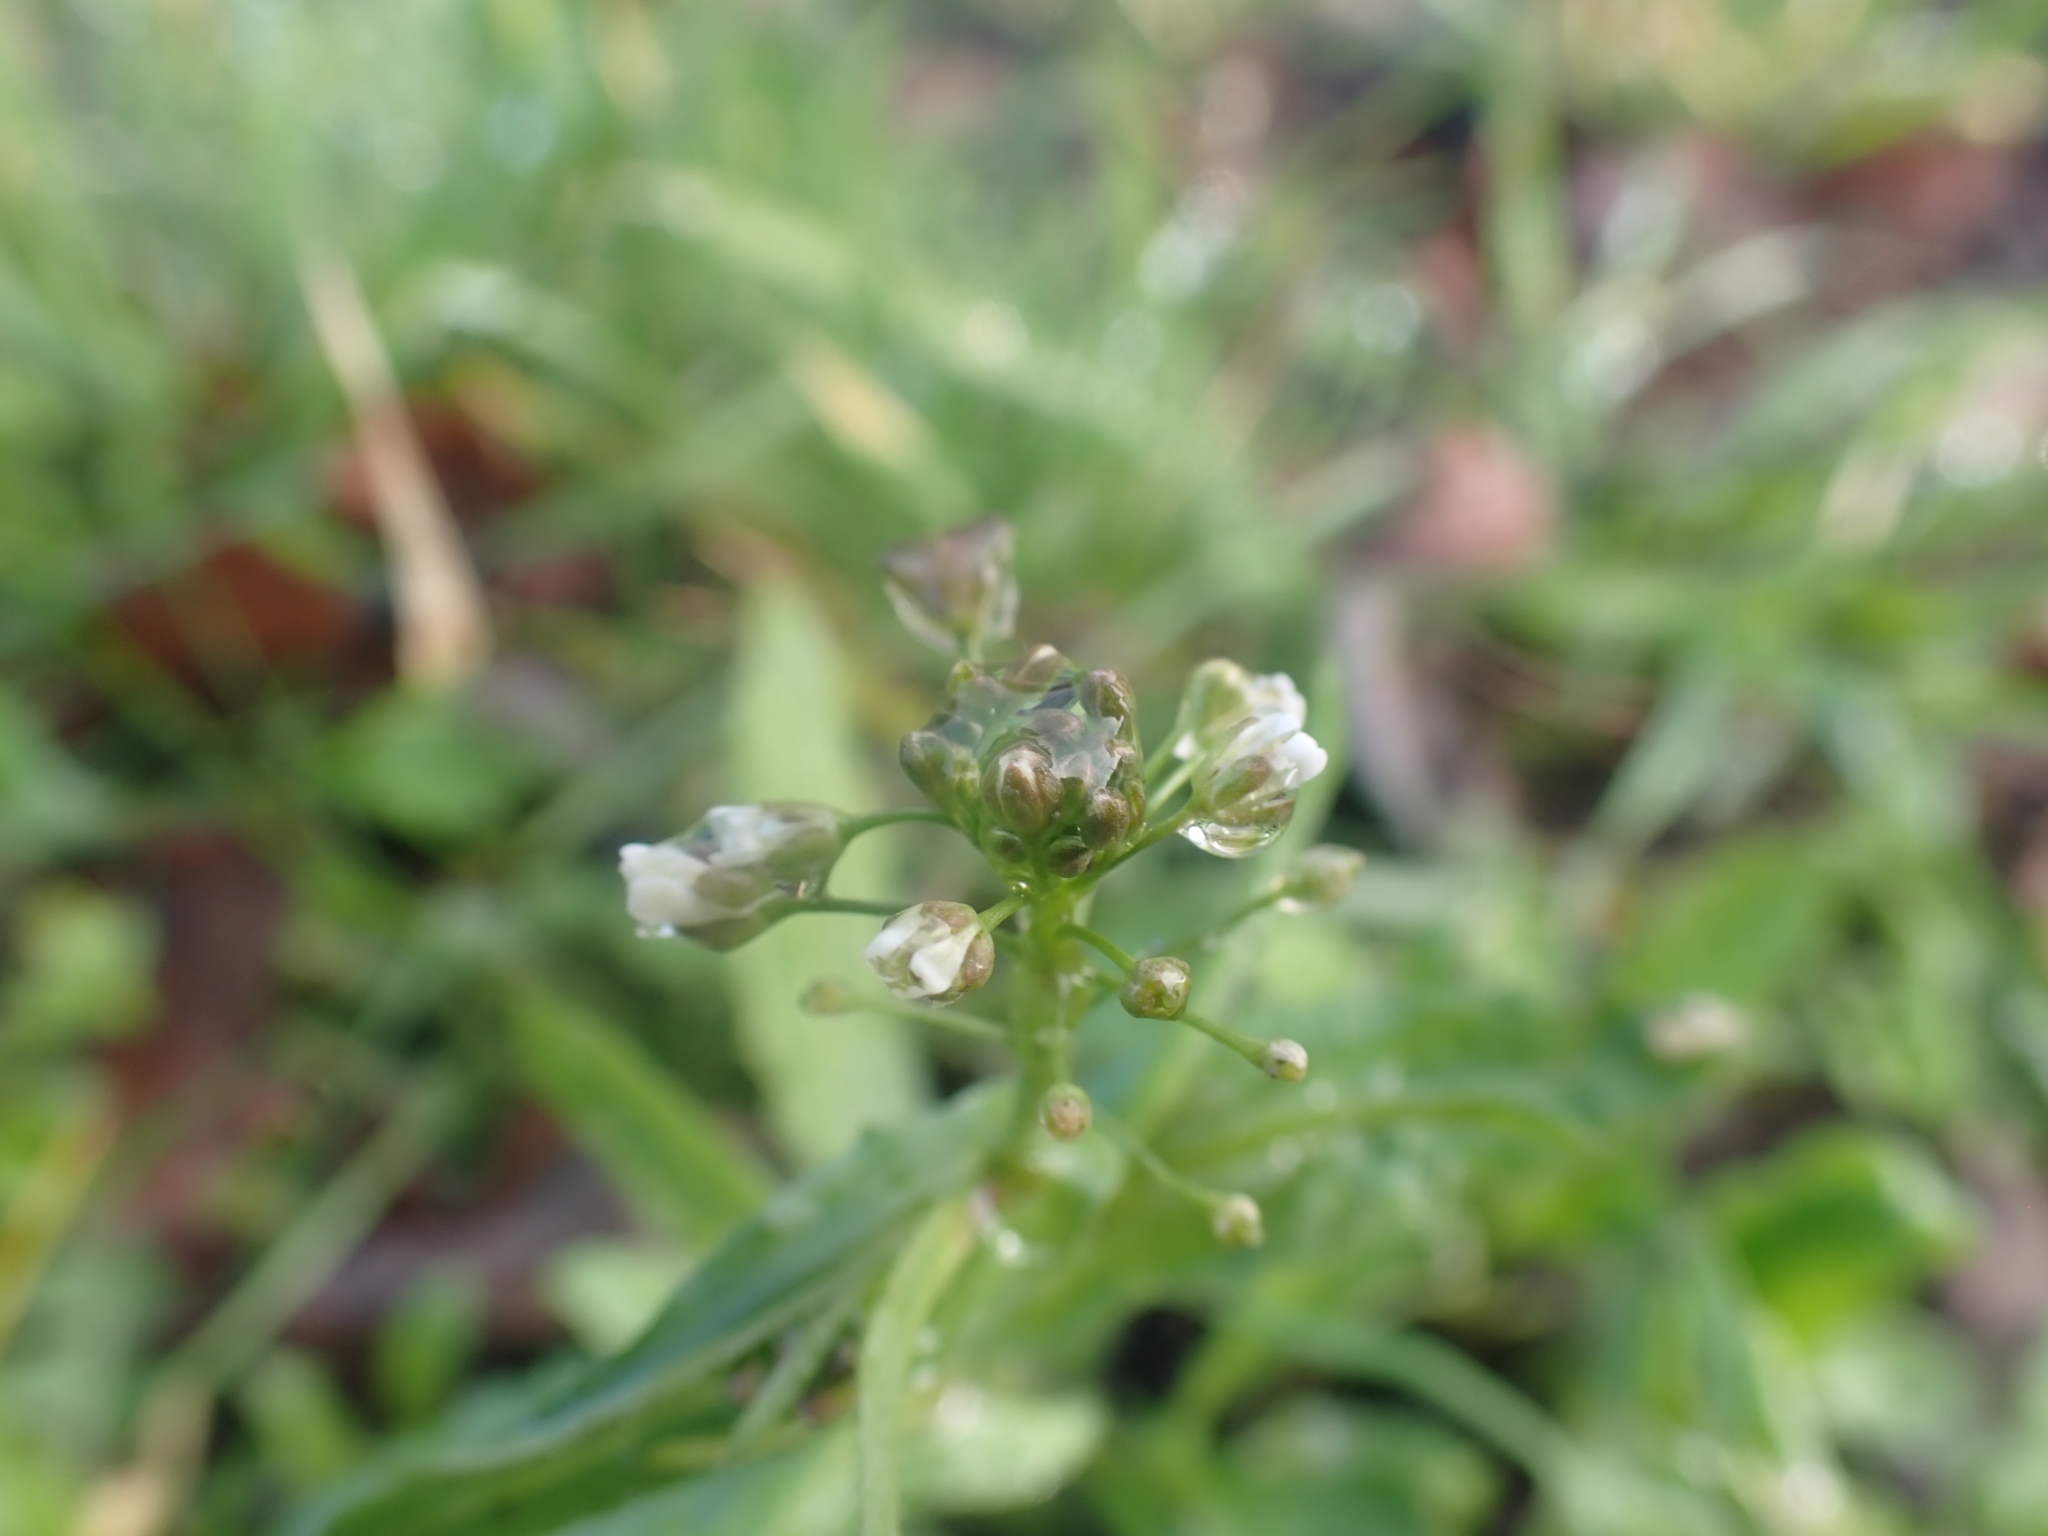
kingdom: Plantae
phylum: Tracheophyta
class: Magnoliopsida
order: Brassicales
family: Brassicaceae
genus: Capsella
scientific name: Capsella bursa-pastoris
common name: Shepherd's purse
